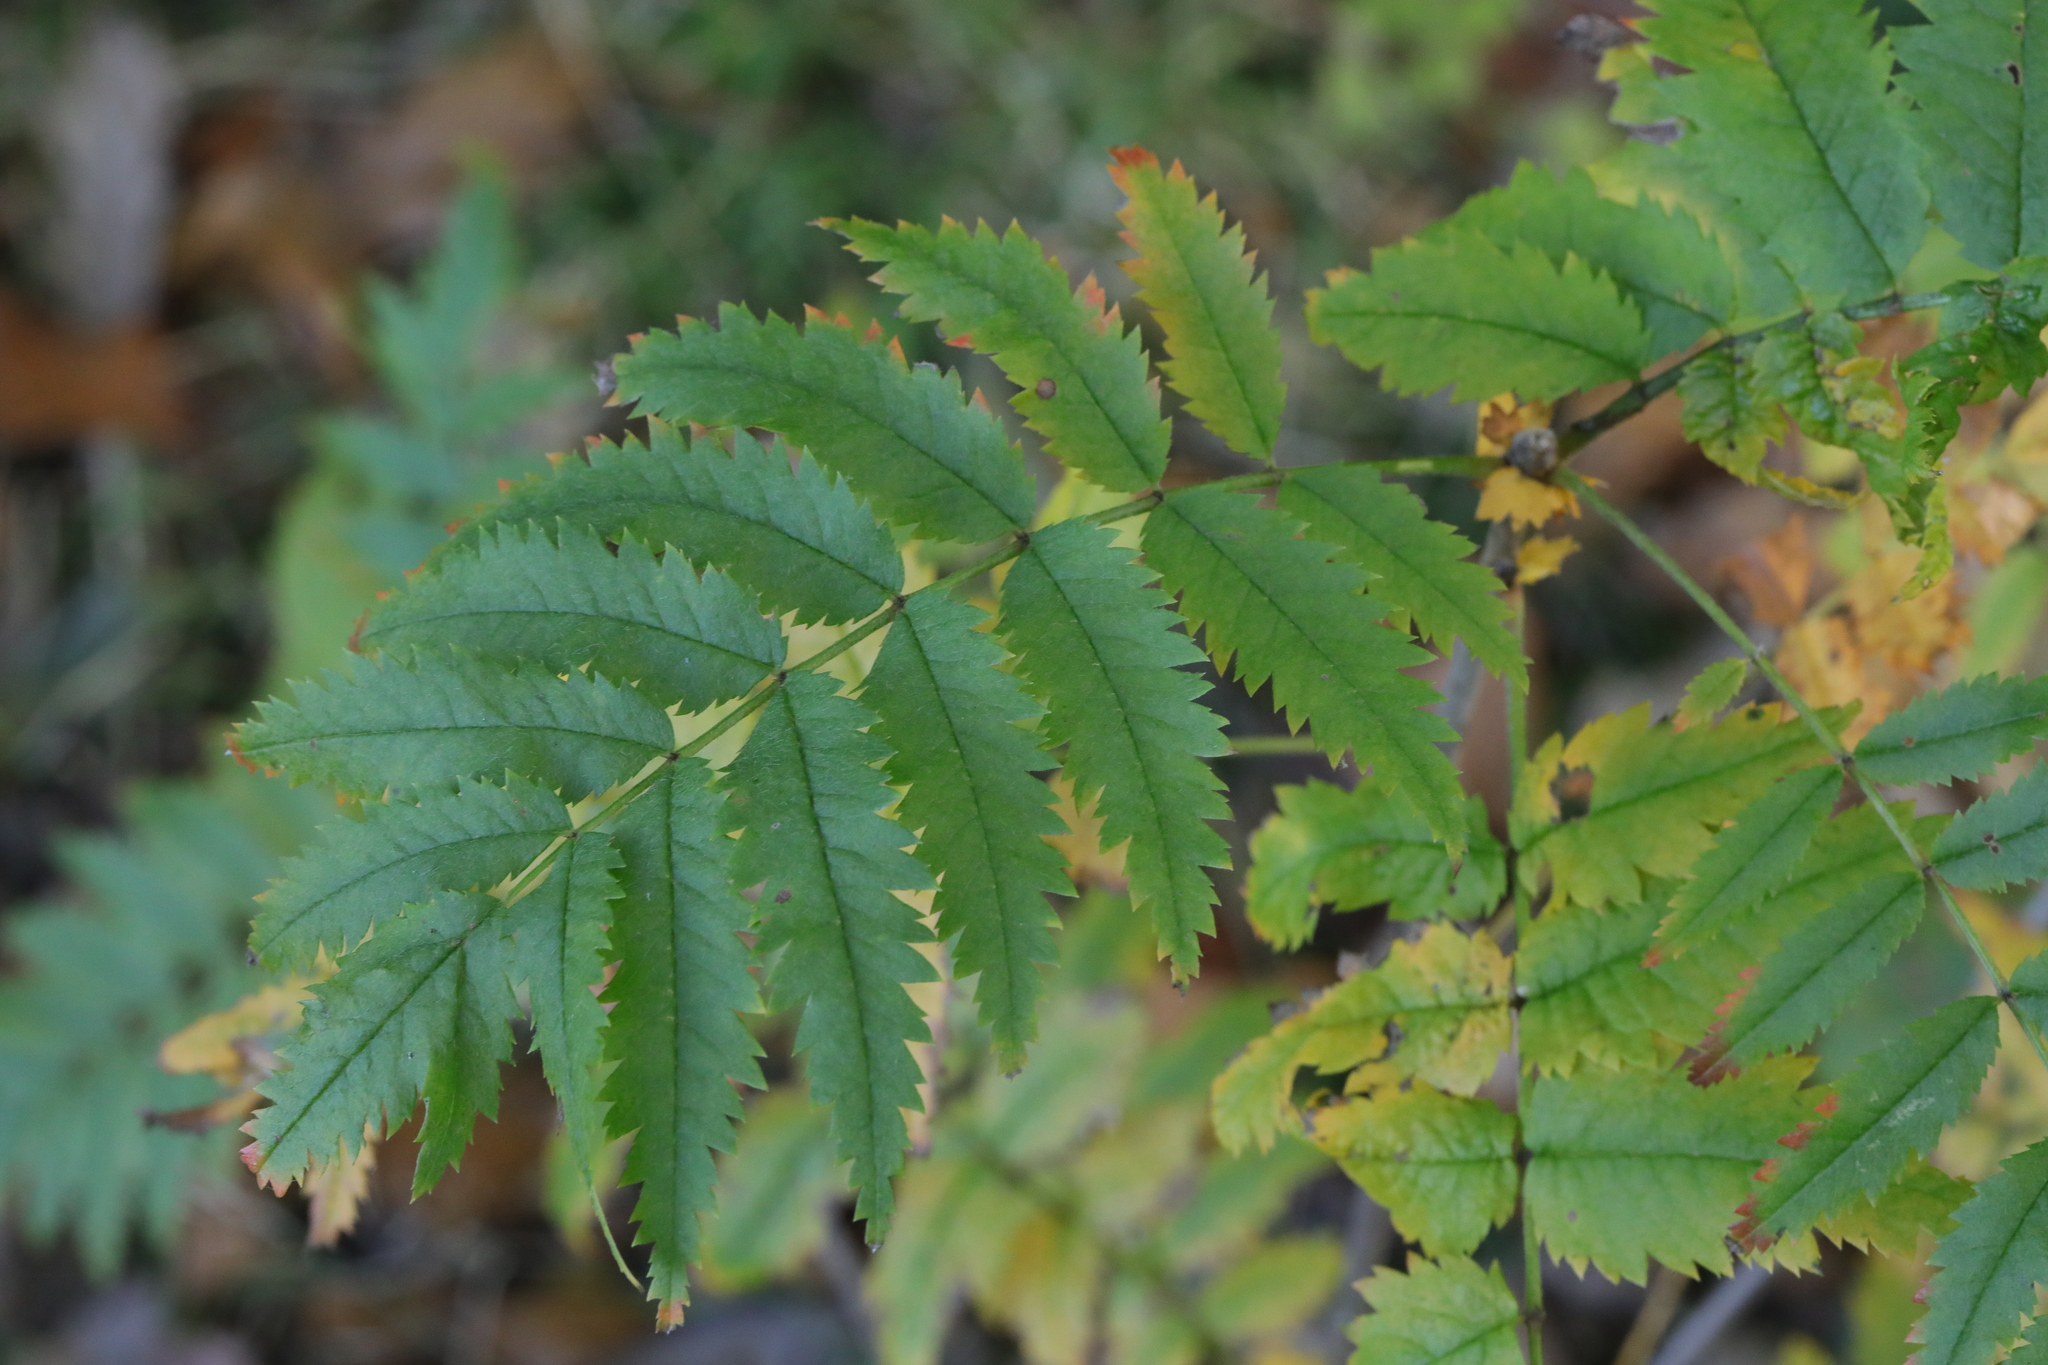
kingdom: Plantae
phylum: Tracheophyta
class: Magnoliopsida
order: Rosales
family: Rosaceae
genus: Sorbus
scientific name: Sorbus aucuparia
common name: Rowan
